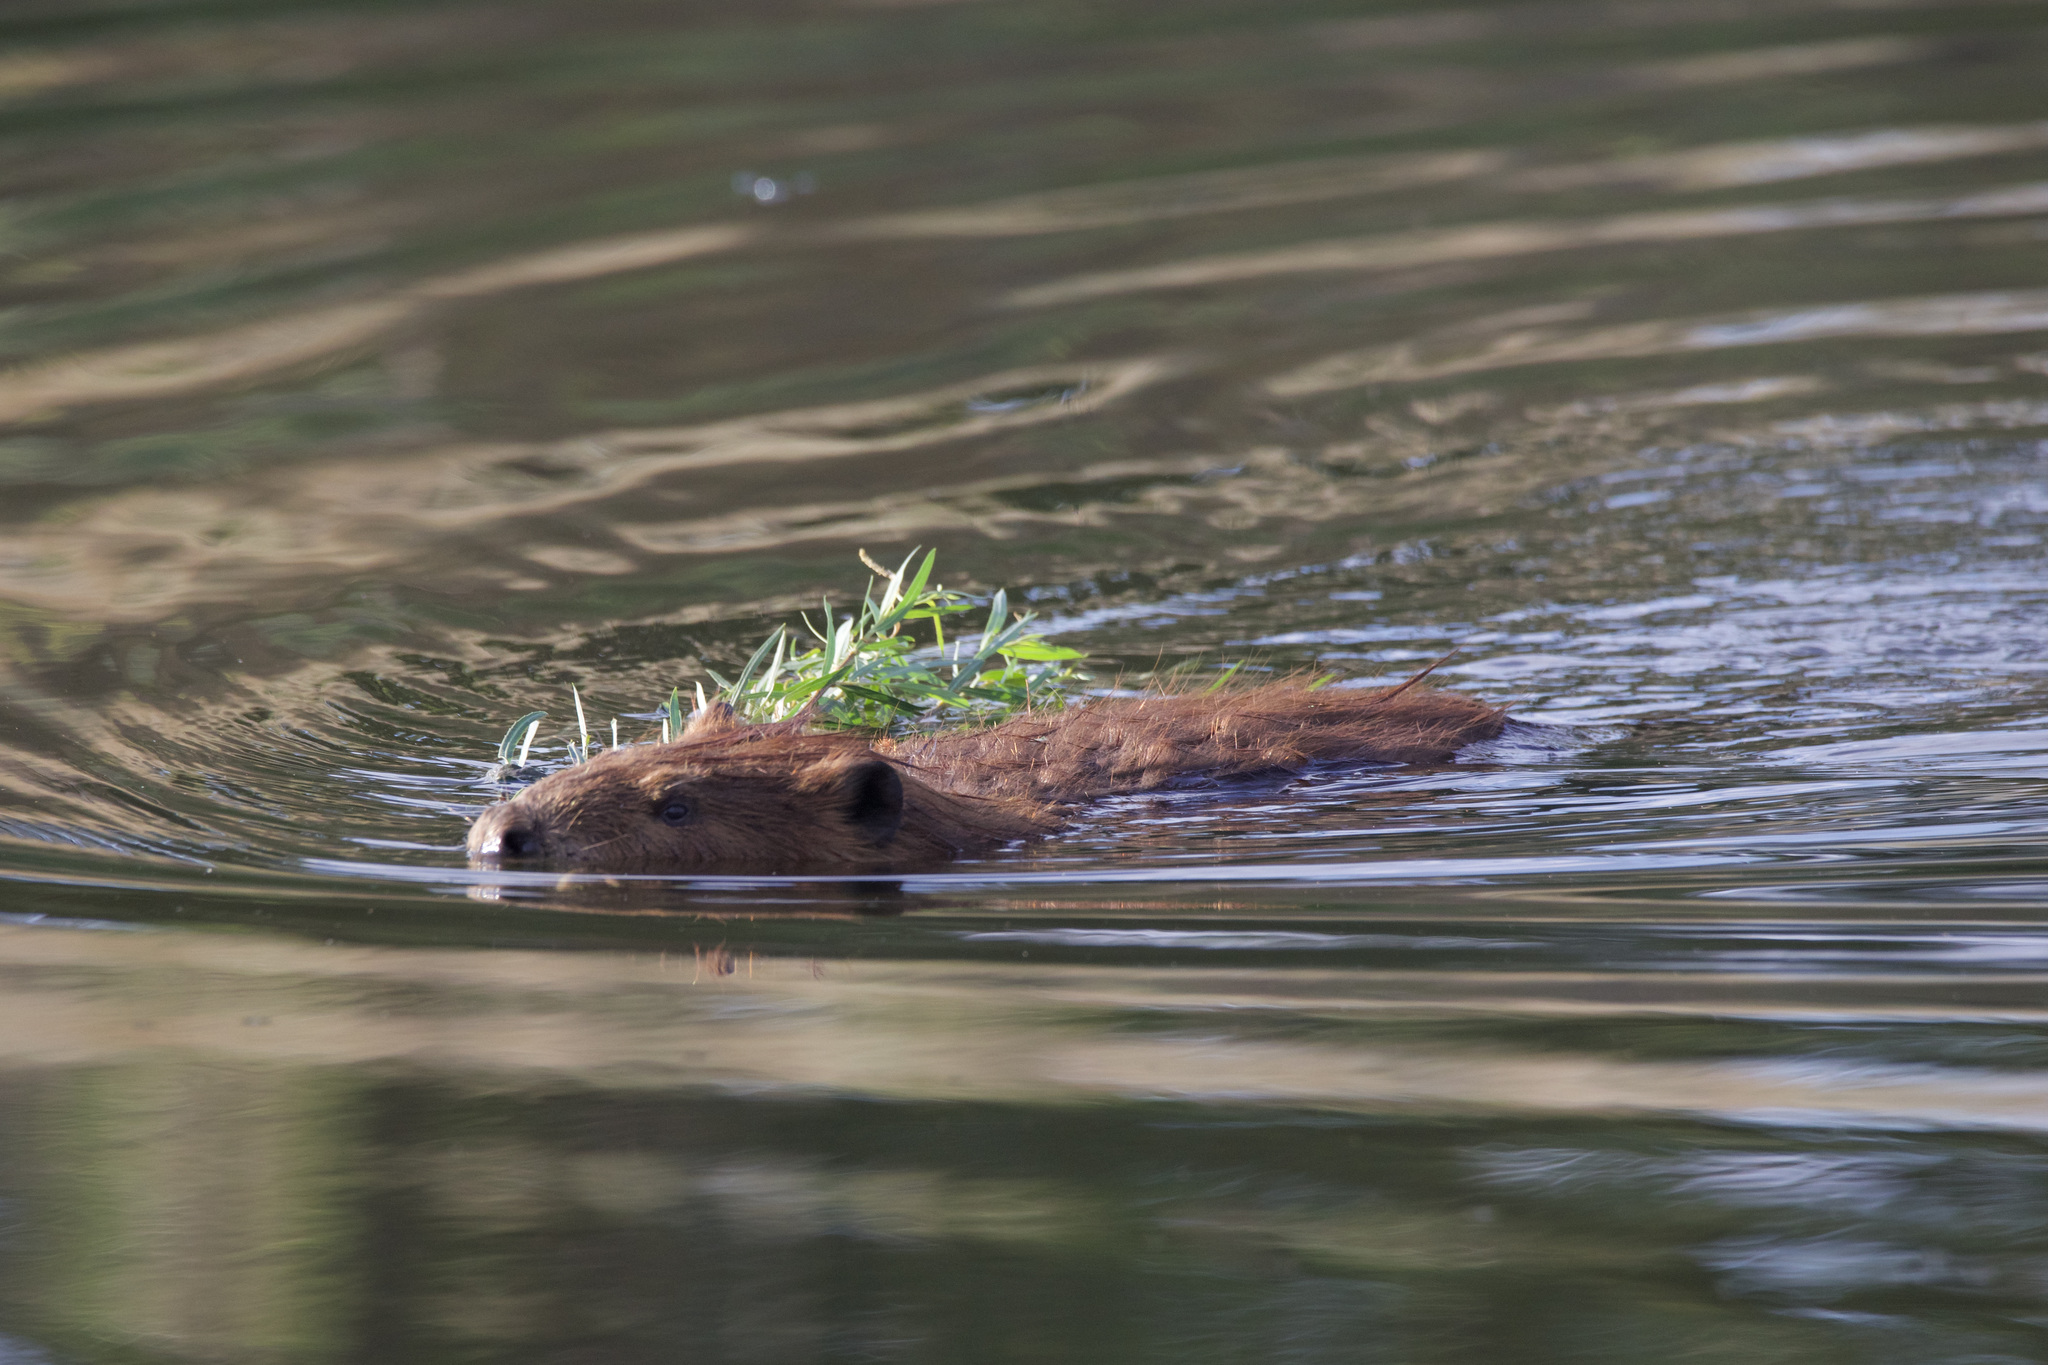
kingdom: Animalia
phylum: Chordata
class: Mammalia
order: Rodentia
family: Castoridae
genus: Castor
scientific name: Castor canadensis
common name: American beaver
